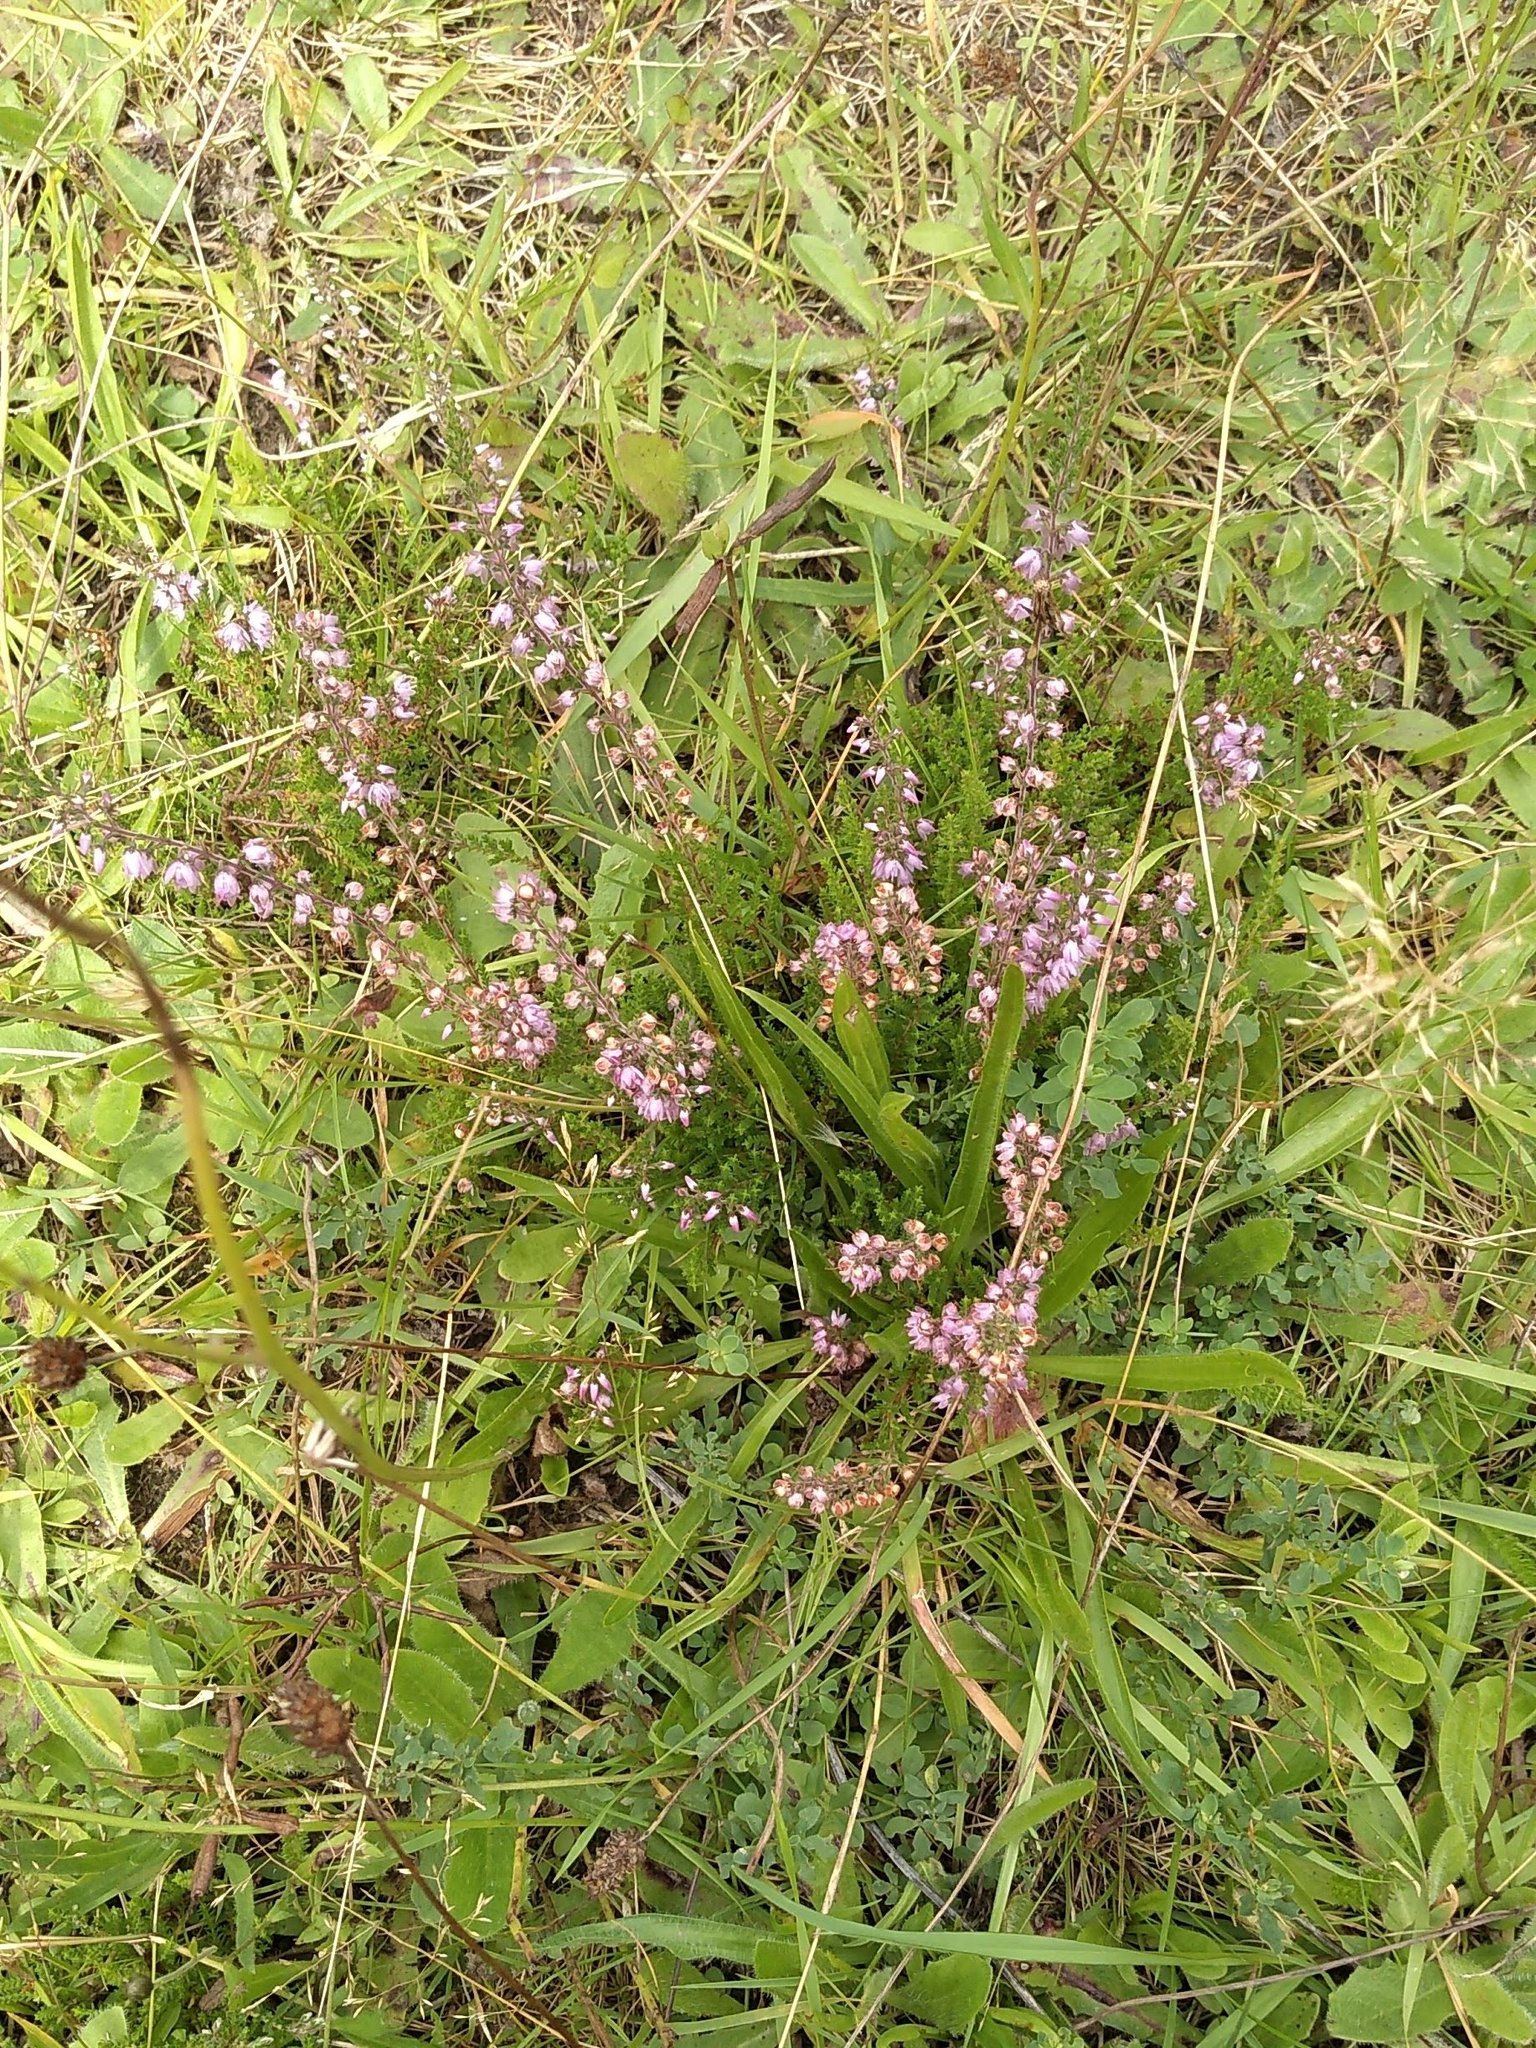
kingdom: Plantae
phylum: Tracheophyta
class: Magnoliopsida
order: Ericales
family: Ericaceae
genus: Calluna
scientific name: Calluna vulgaris
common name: Heather
